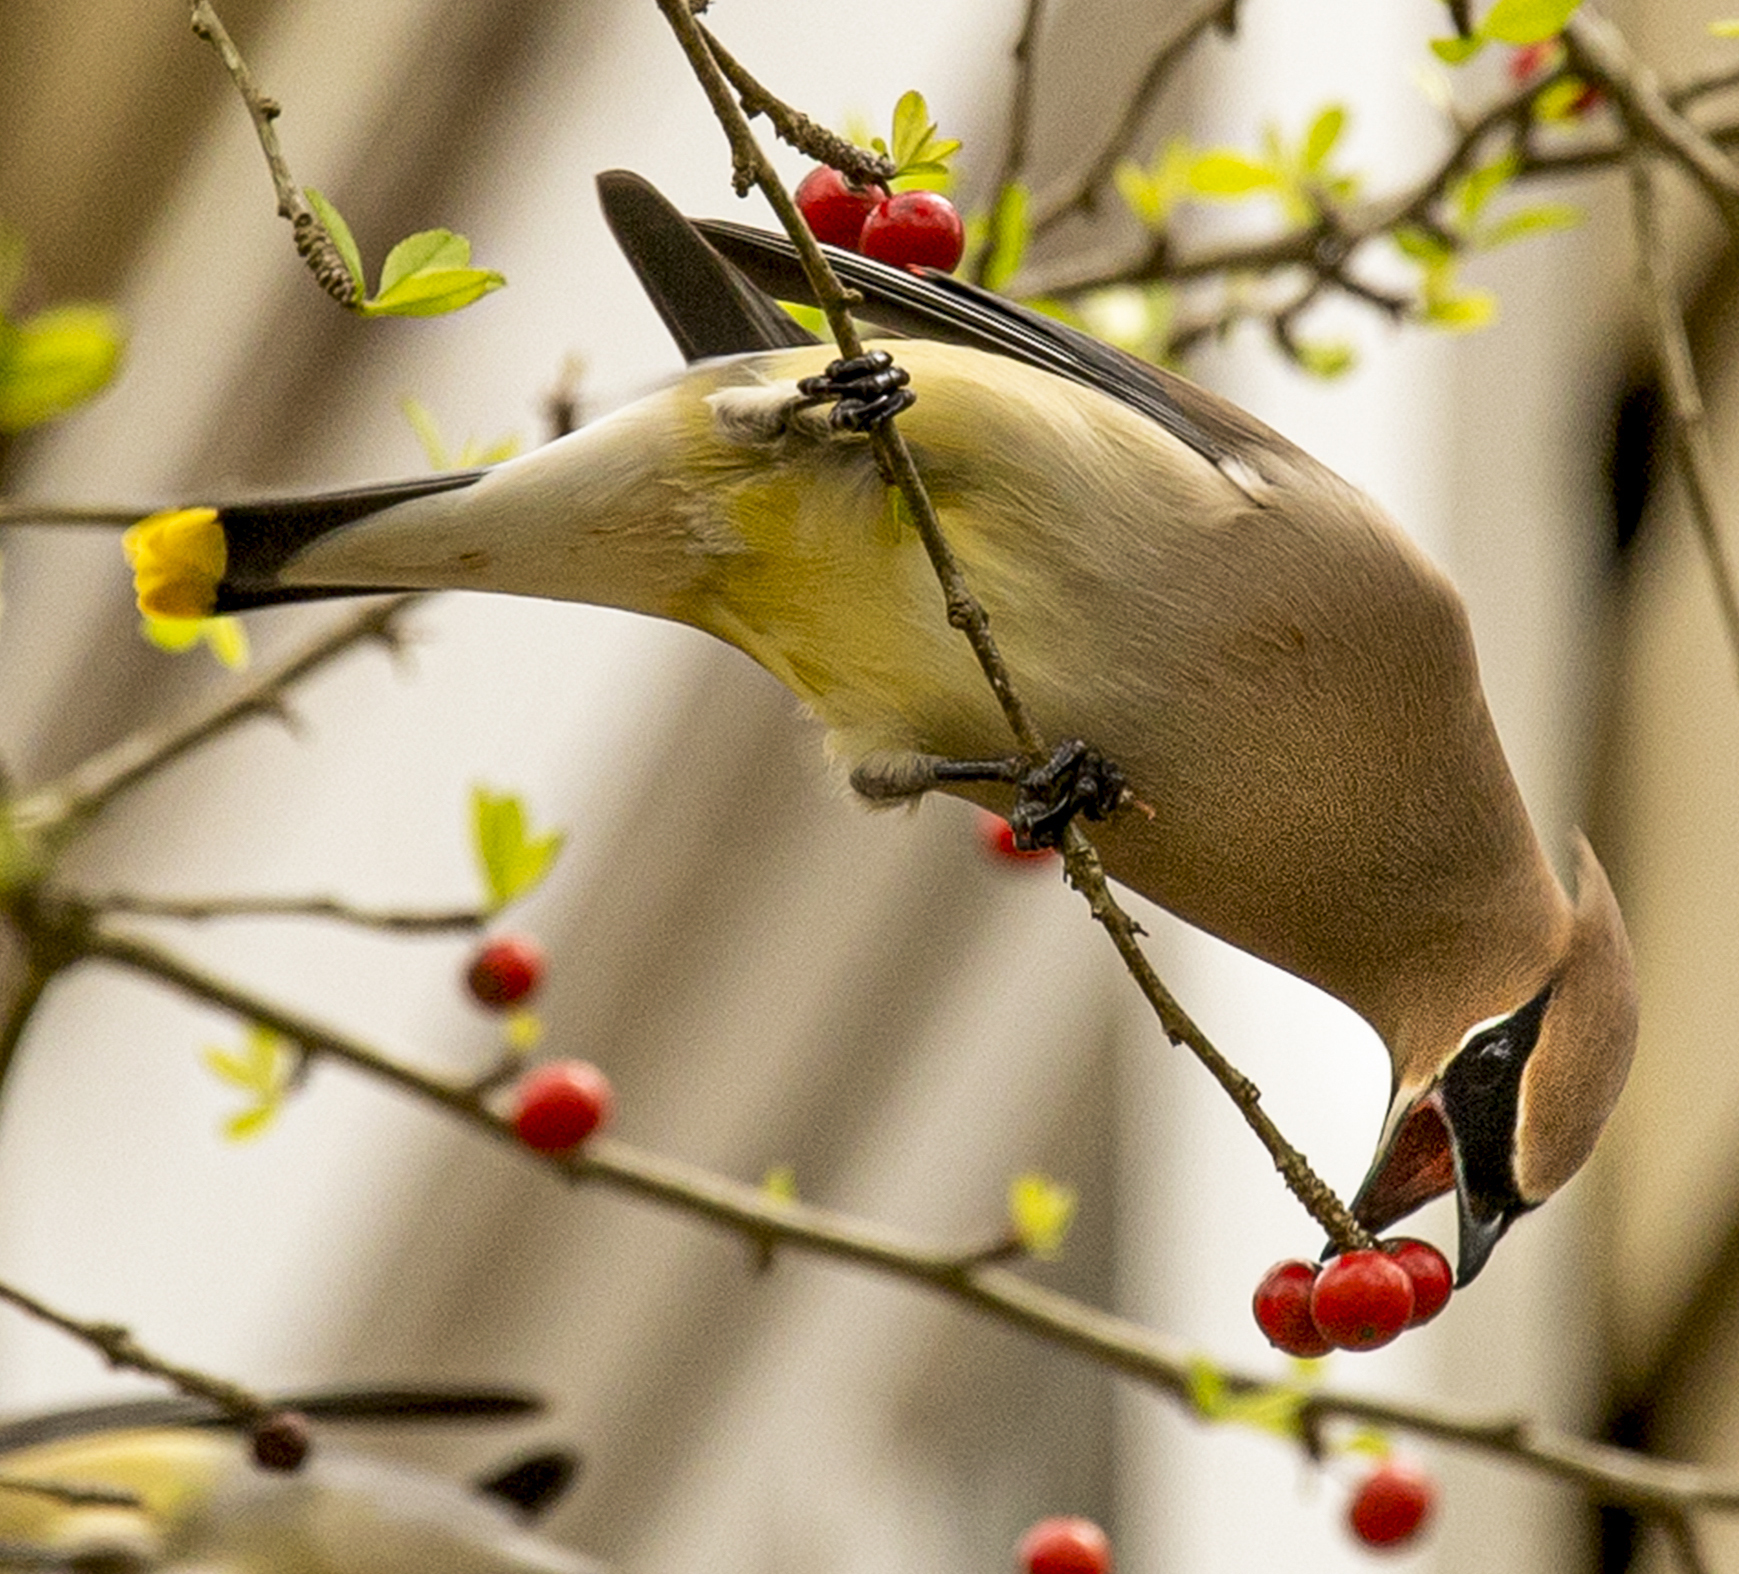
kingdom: Animalia
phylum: Chordata
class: Aves
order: Passeriformes
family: Bombycillidae
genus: Bombycilla
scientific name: Bombycilla cedrorum
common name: Cedar waxwing
